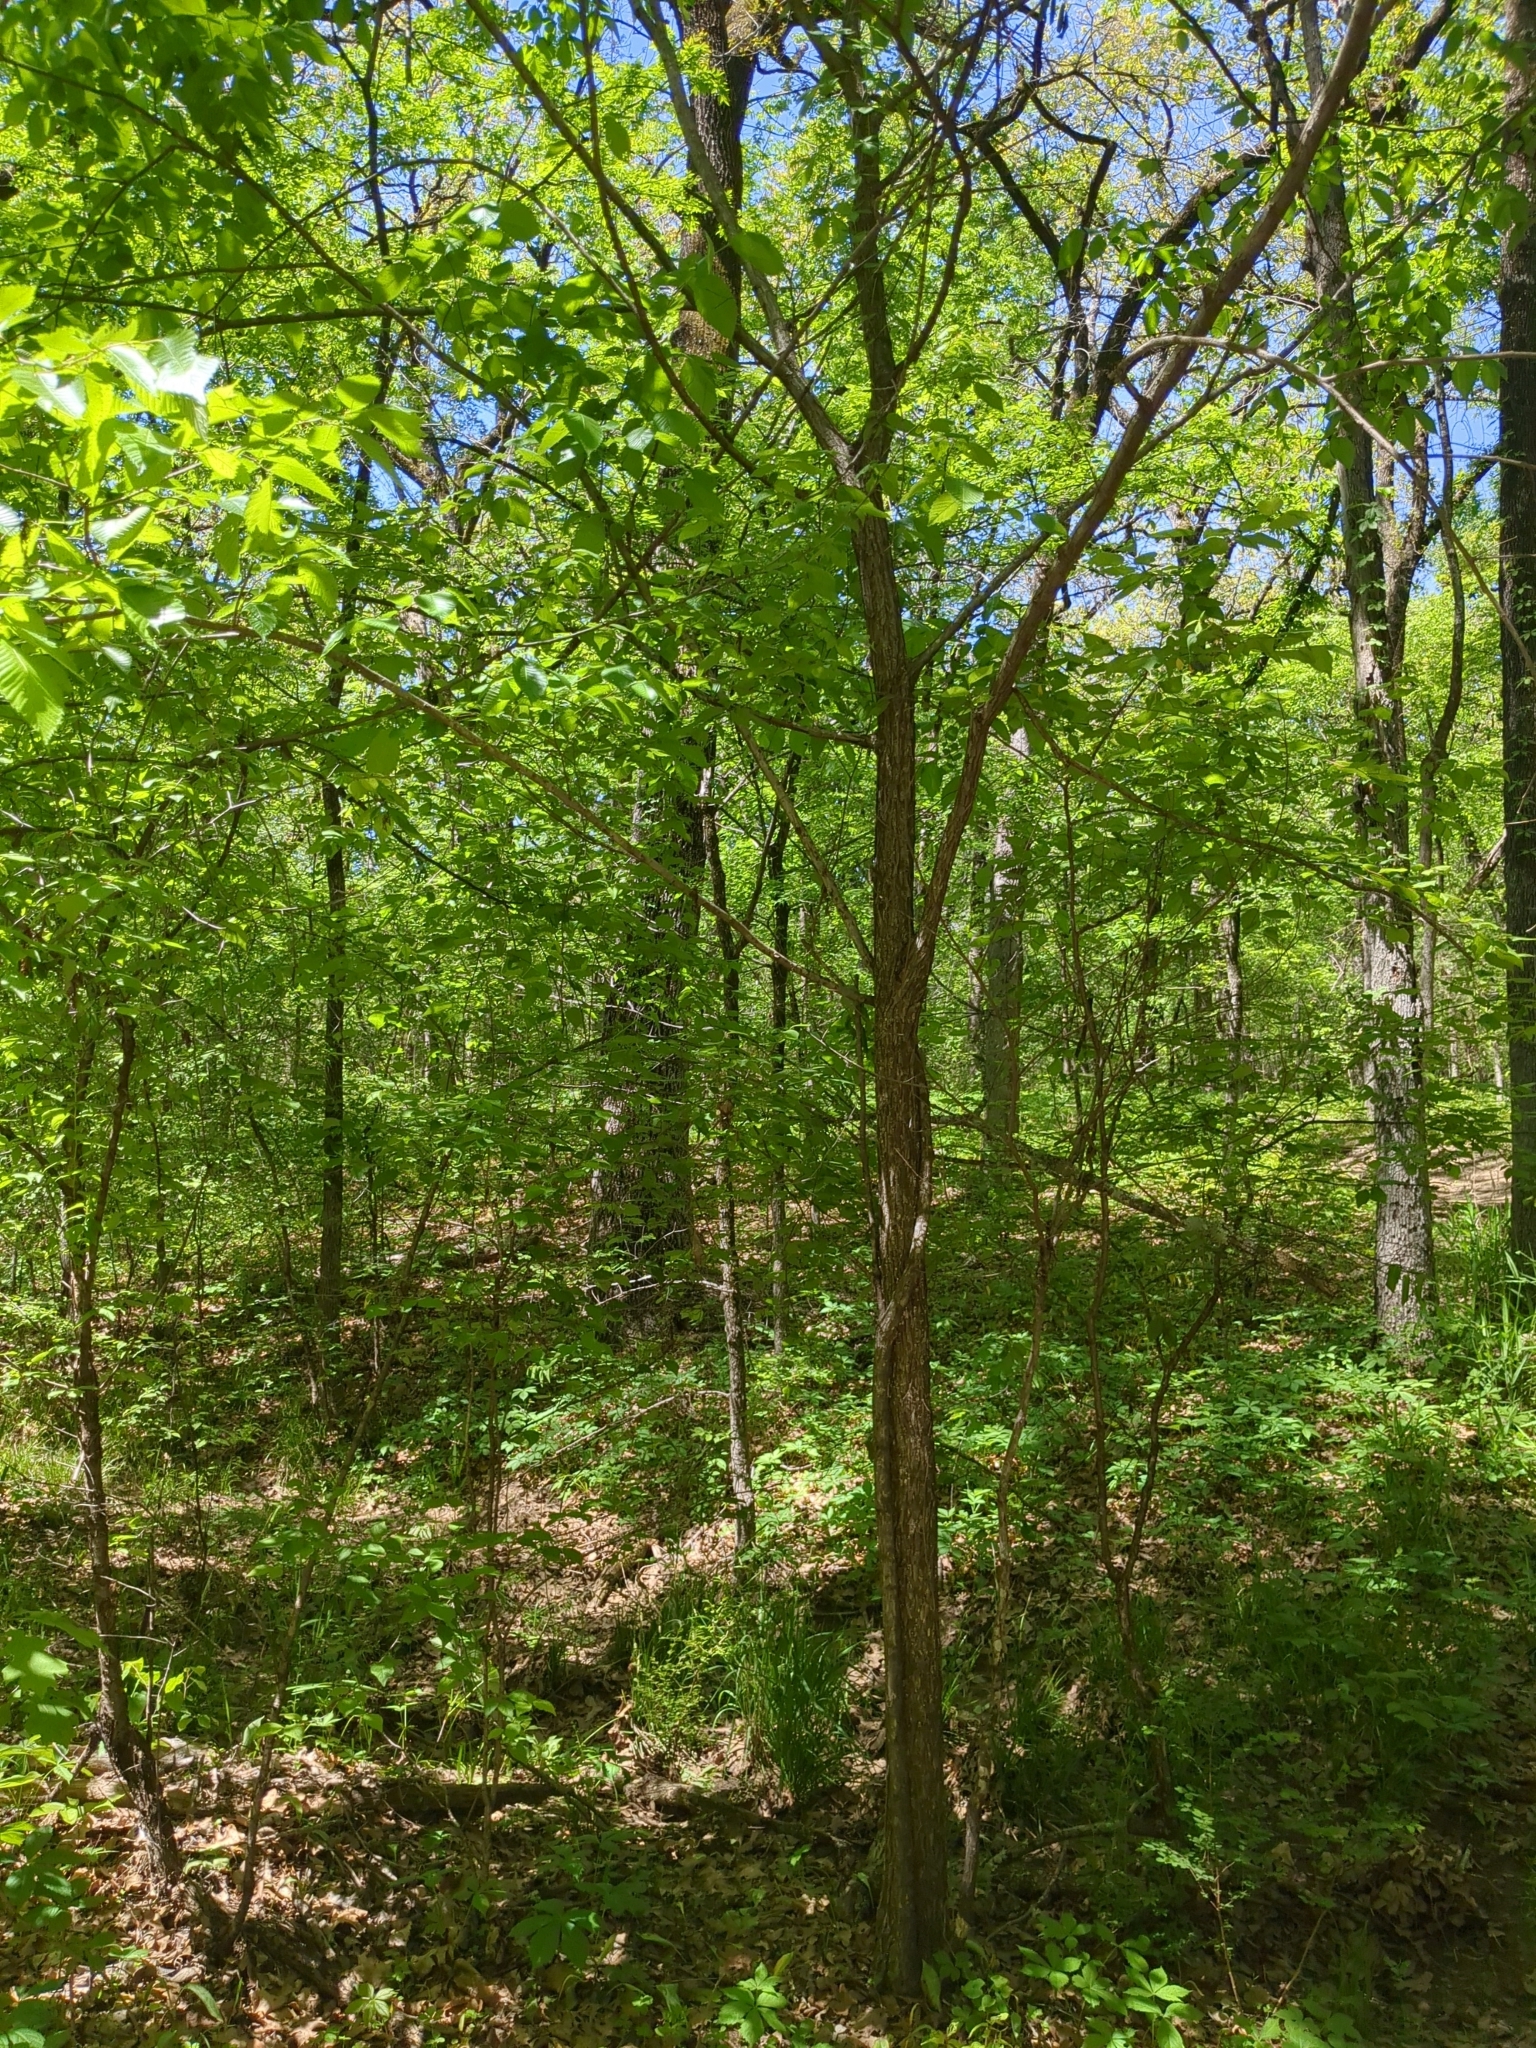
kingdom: Plantae
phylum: Tracheophyta
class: Magnoliopsida
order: Rosales
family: Ulmaceae
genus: Ulmus
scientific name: Ulmus americana
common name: American elm
